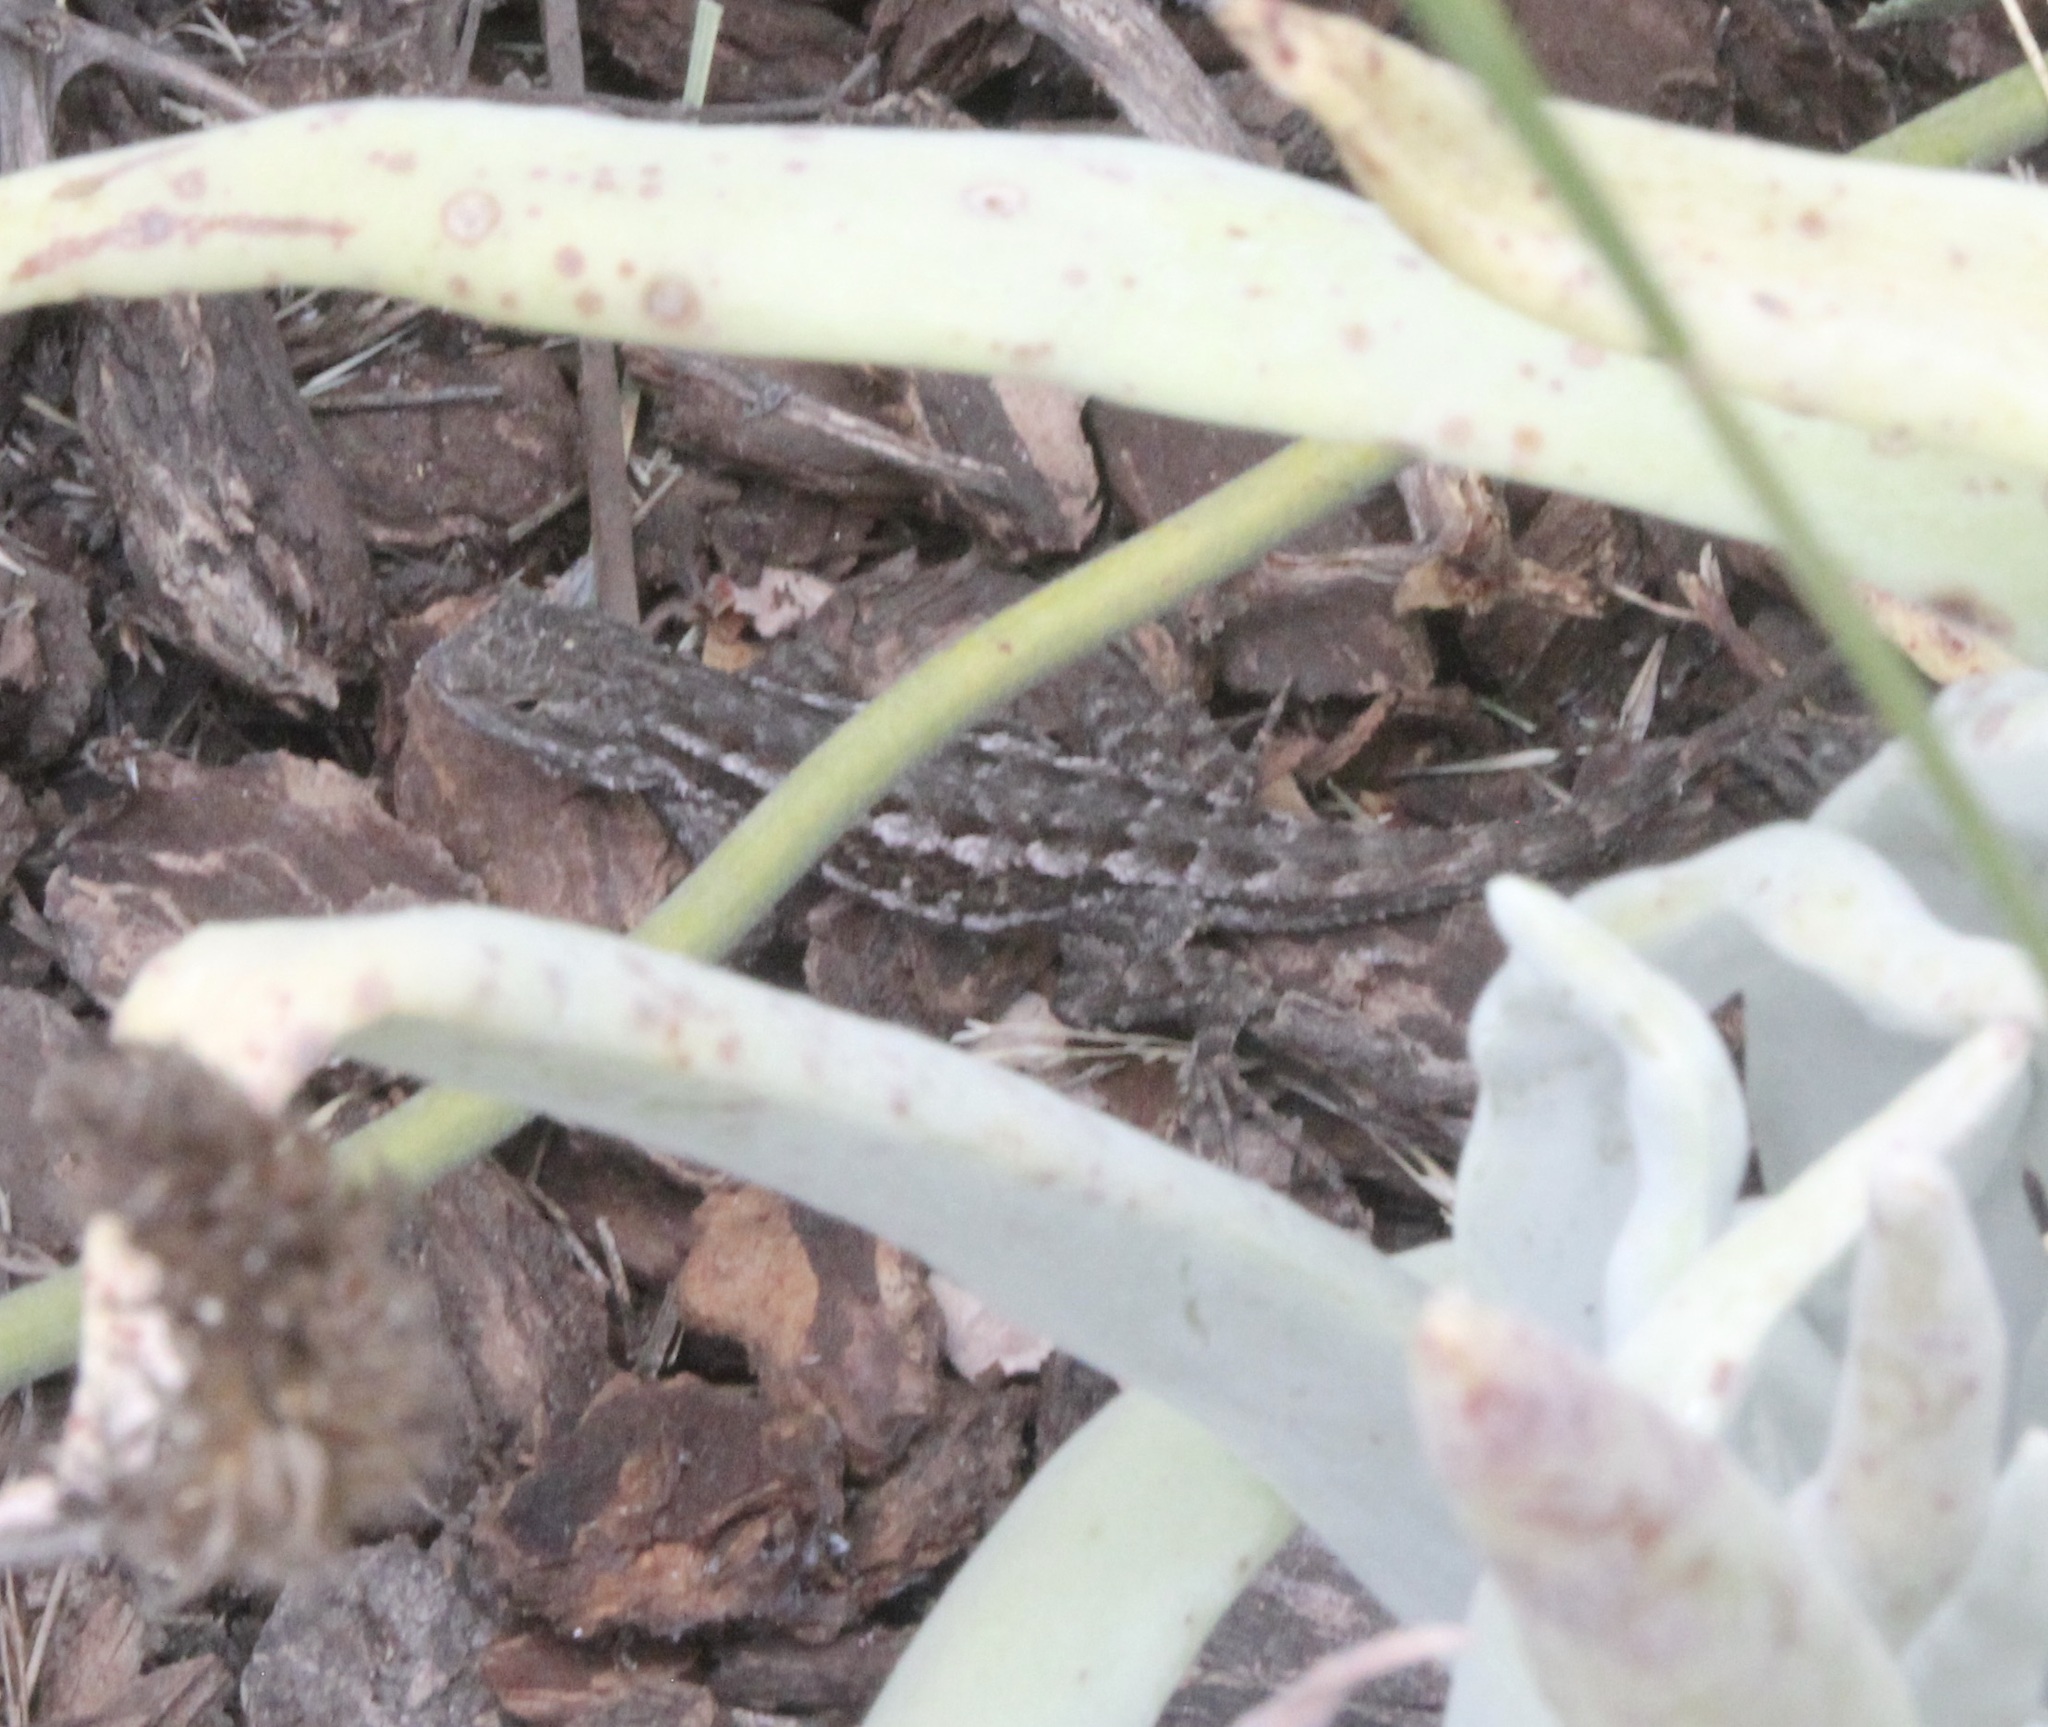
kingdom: Animalia
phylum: Chordata
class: Squamata
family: Phrynosomatidae
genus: Sceloporus
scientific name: Sceloporus occidentalis
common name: Western fence lizard
